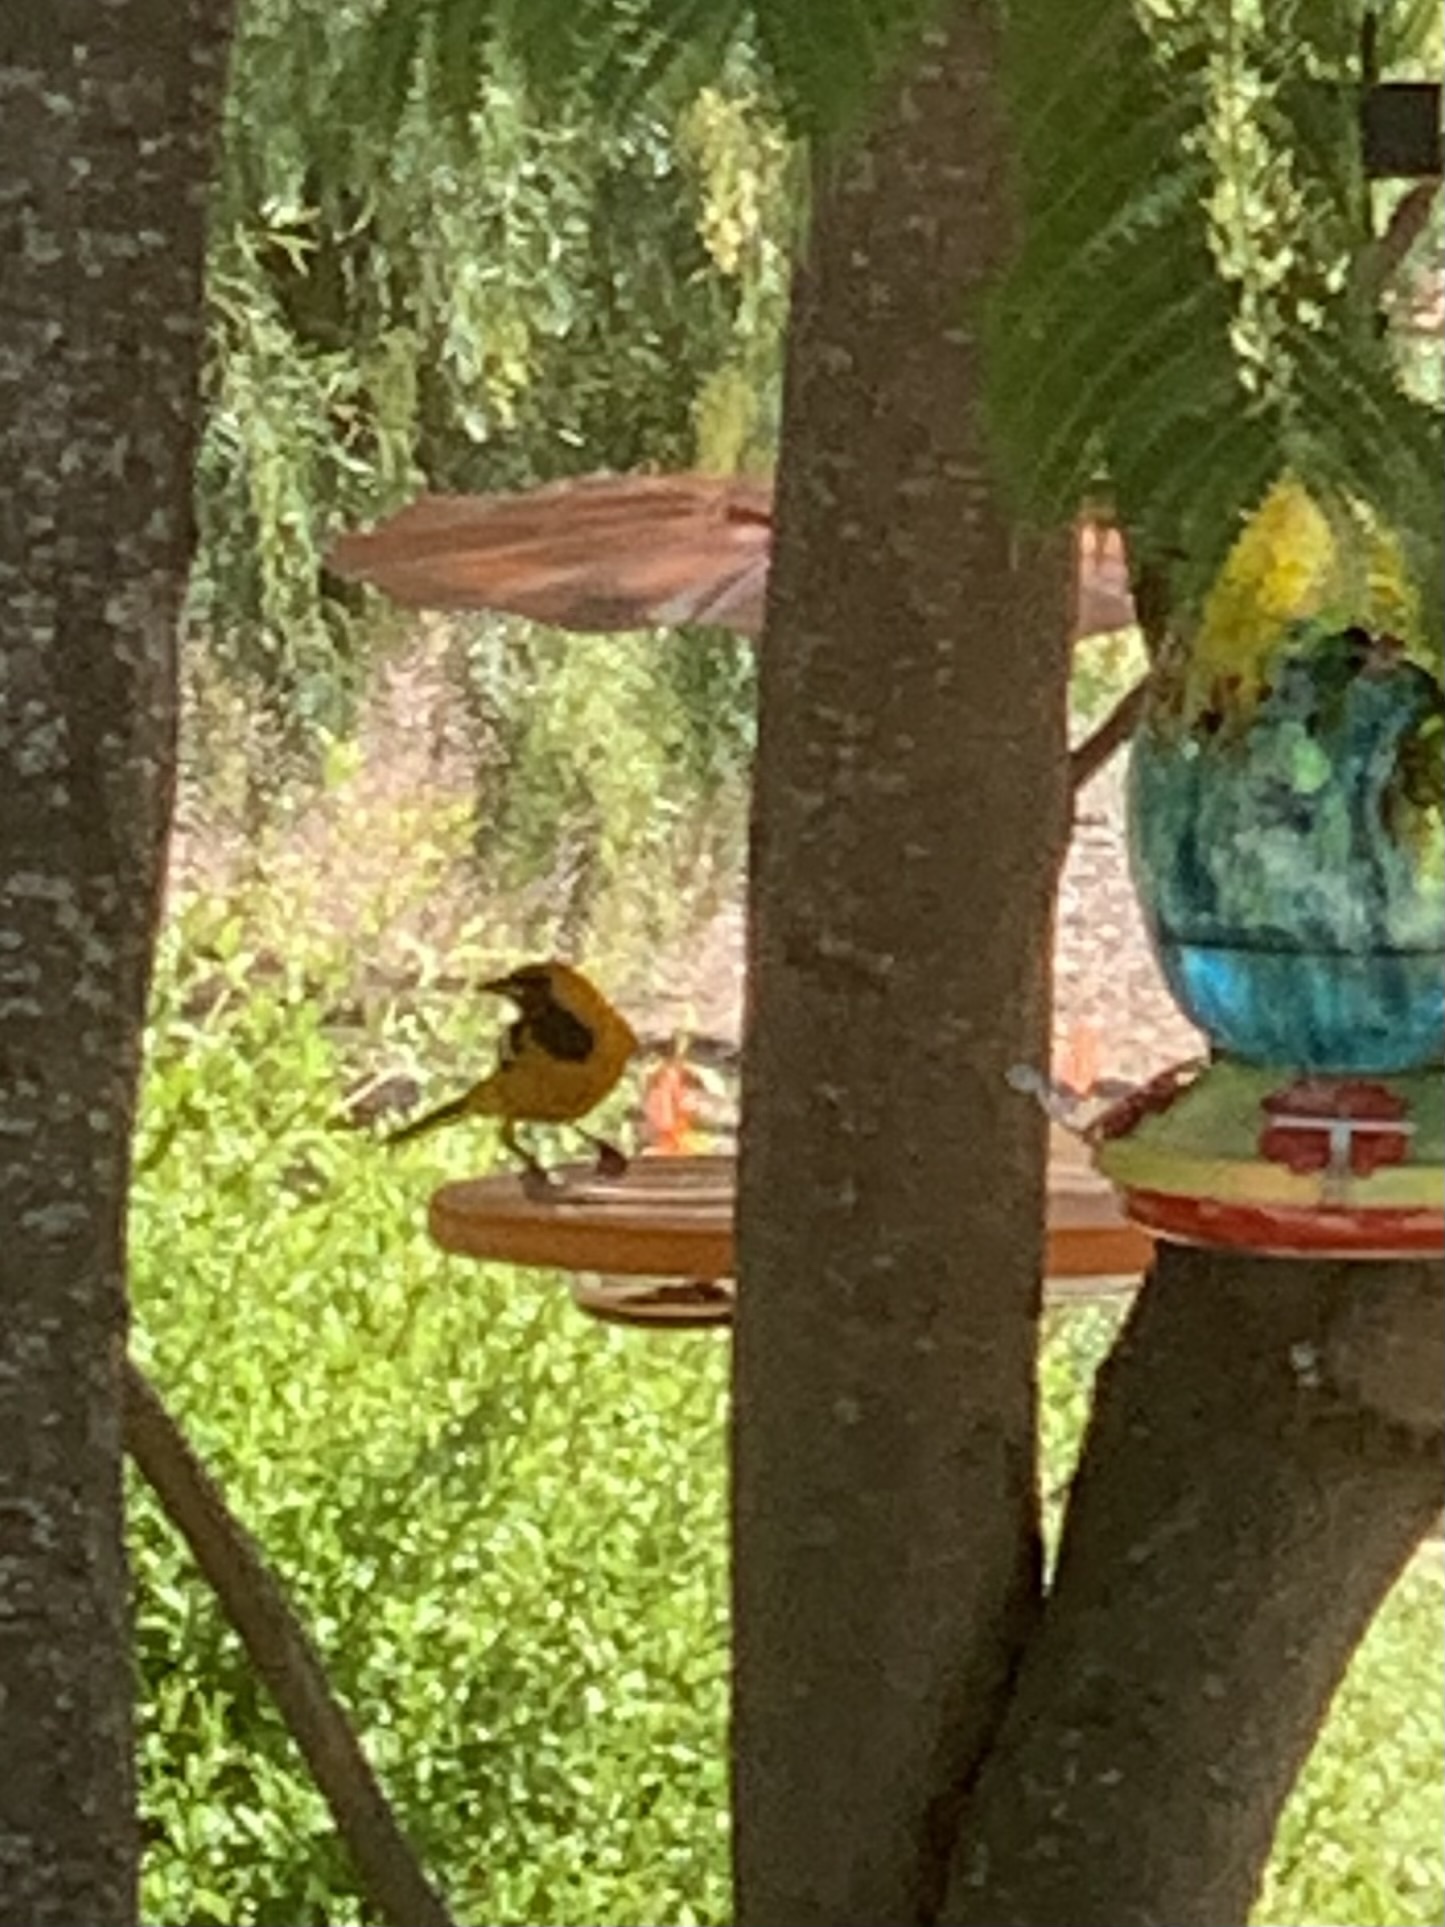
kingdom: Animalia
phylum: Chordata
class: Aves
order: Passeriformes
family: Icteridae
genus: Icterus
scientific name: Icterus cucullatus
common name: Hooded oriole
